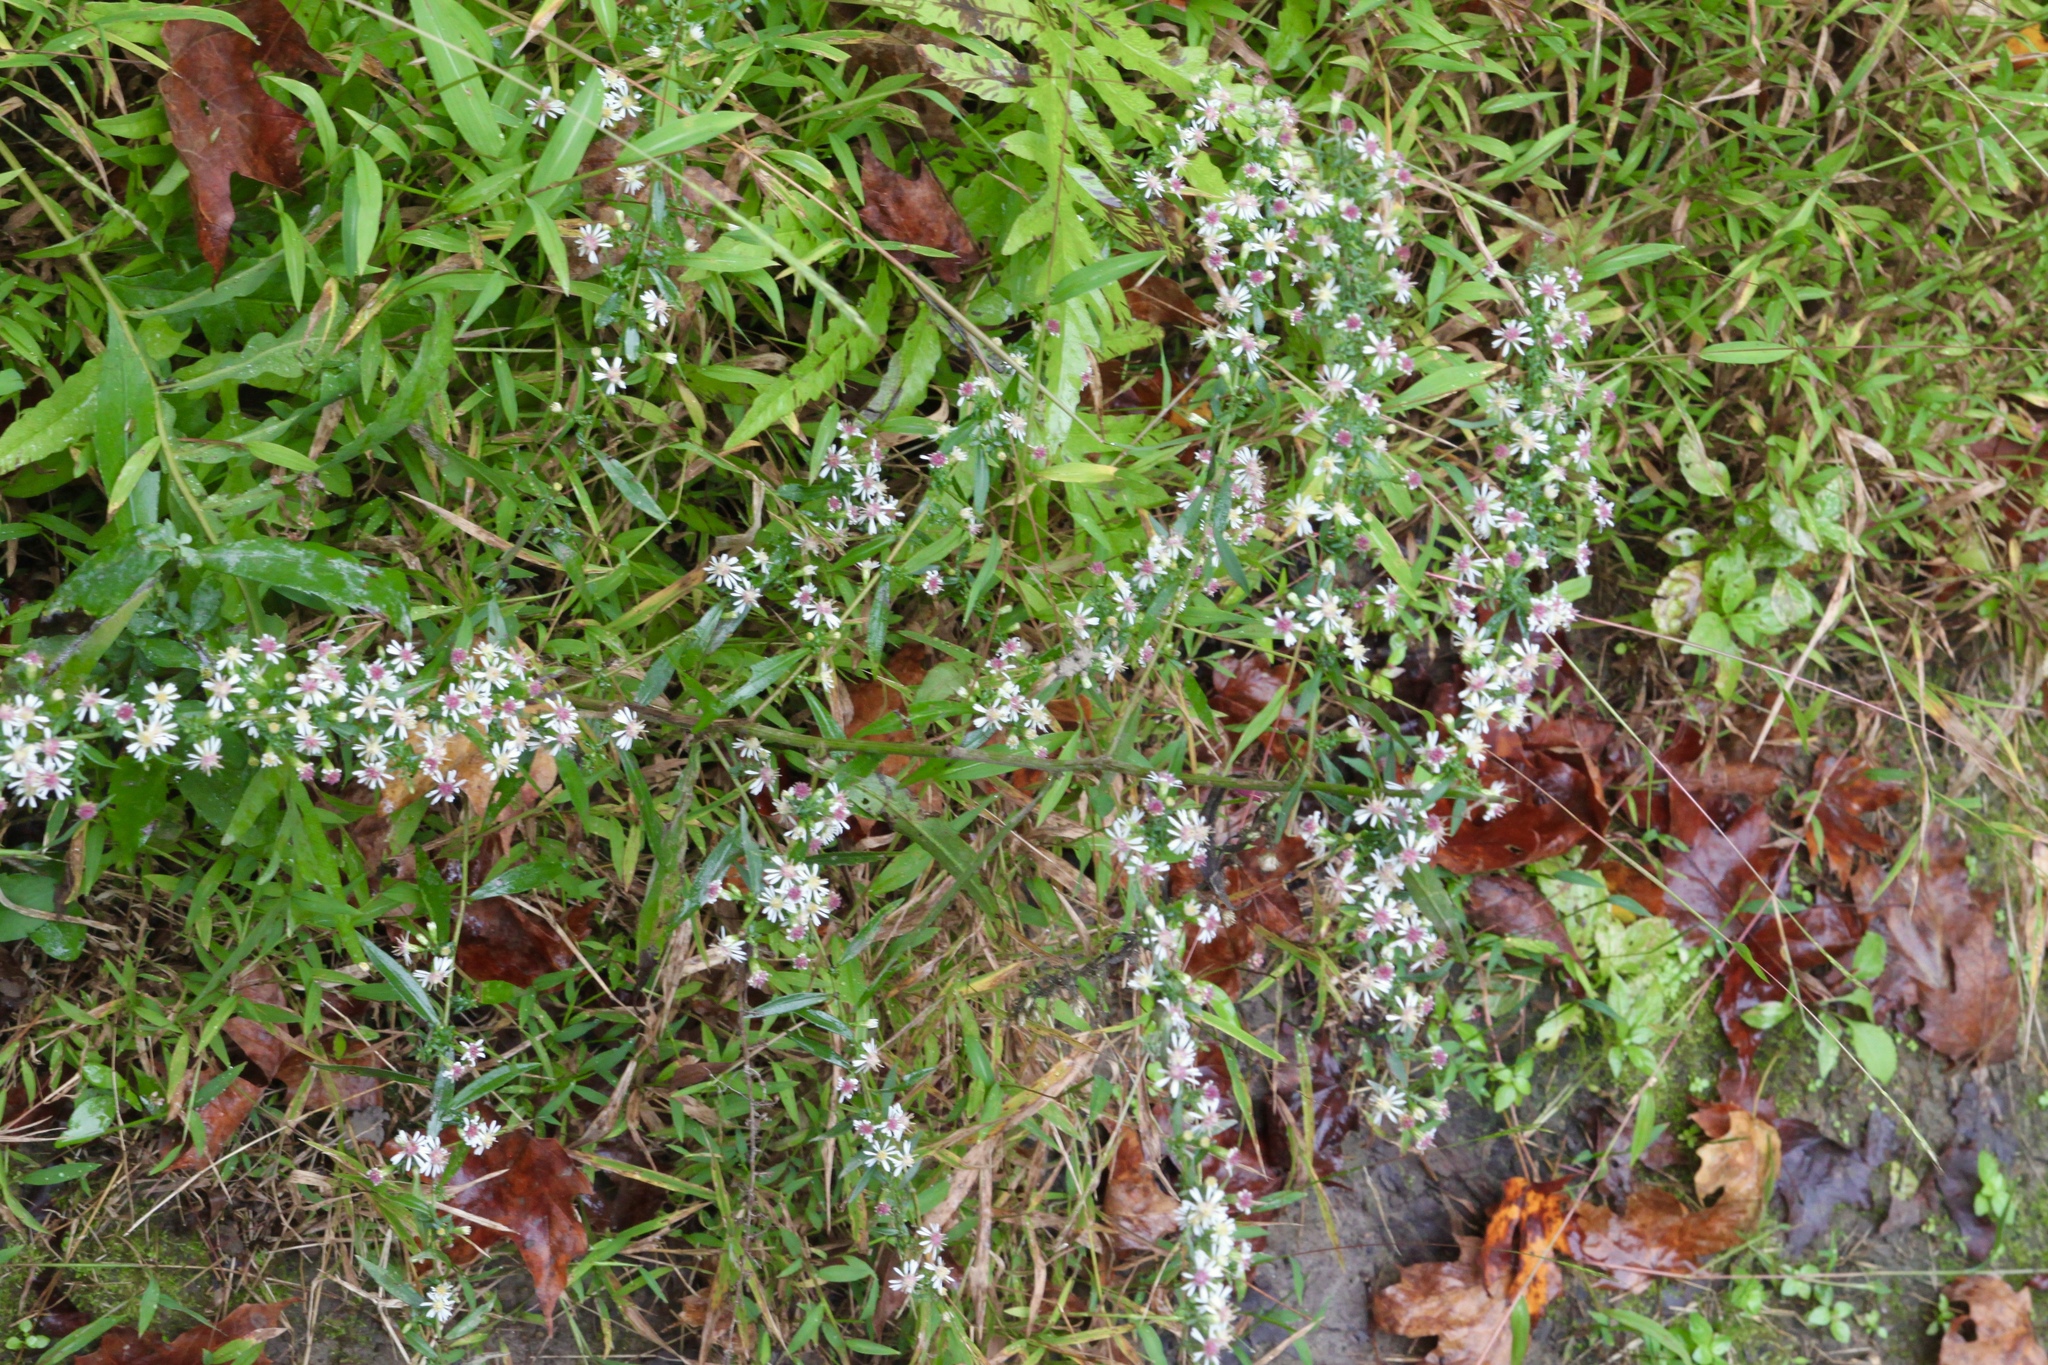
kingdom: Plantae
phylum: Tracheophyta
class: Magnoliopsida
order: Asterales
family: Asteraceae
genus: Symphyotrichum
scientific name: Symphyotrichum lateriflorum
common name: Calico aster
